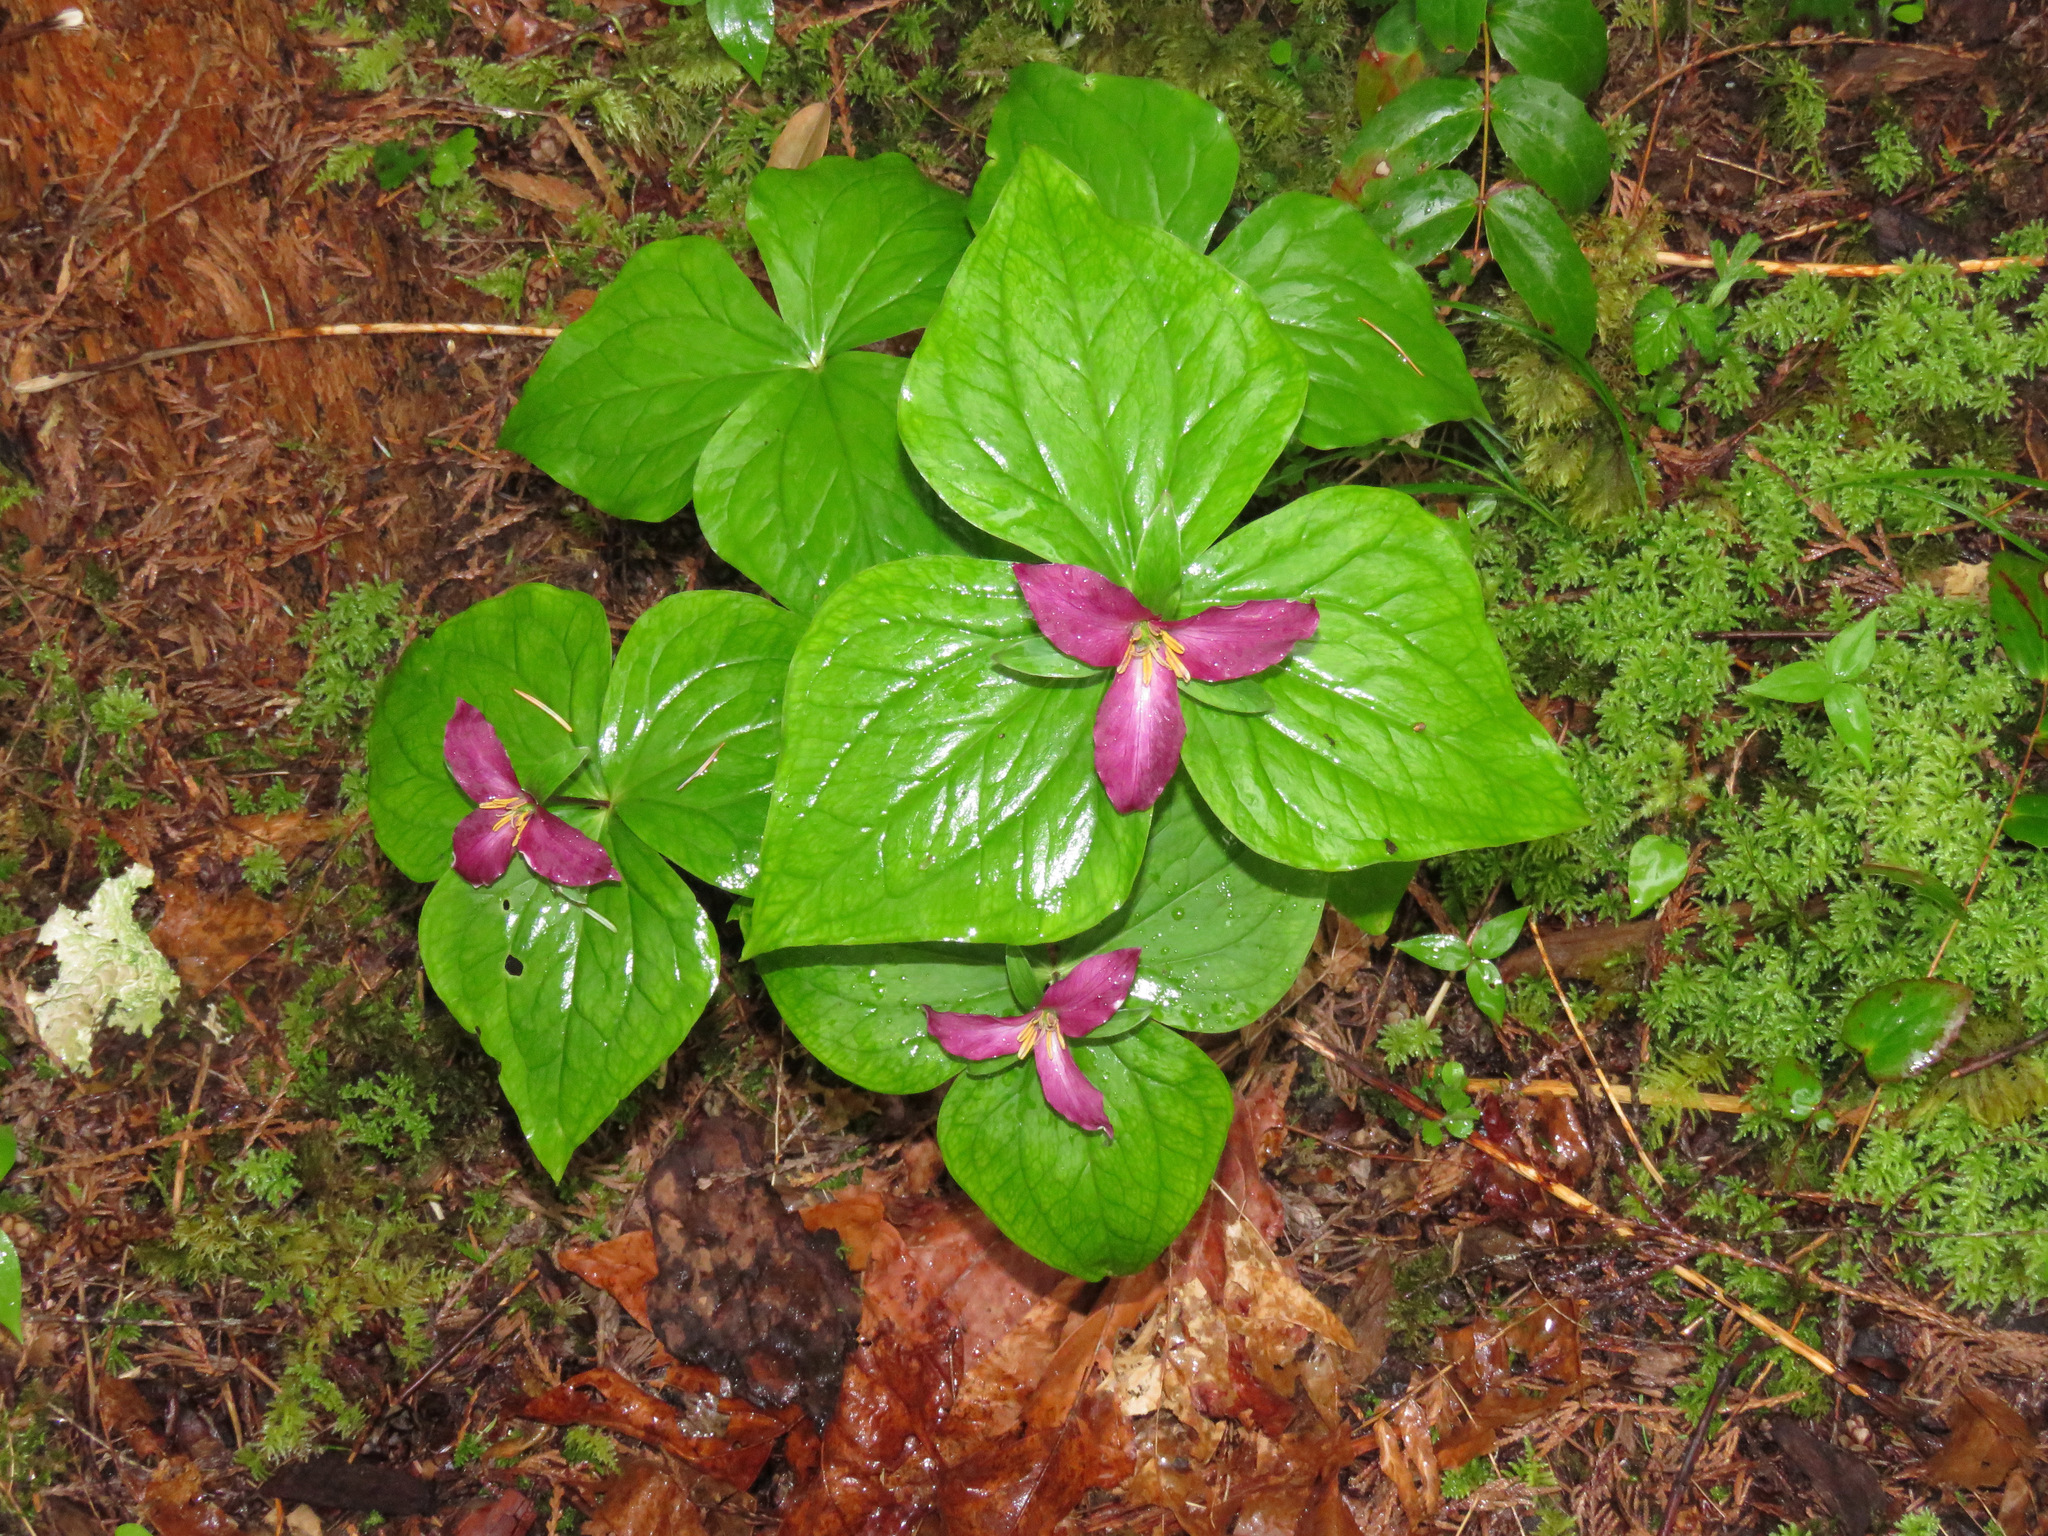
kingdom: Plantae
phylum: Tracheophyta
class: Liliopsida
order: Liliales
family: Melanthiaceae
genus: Trillium
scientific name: Trillium ovatum
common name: Pacific trillium
